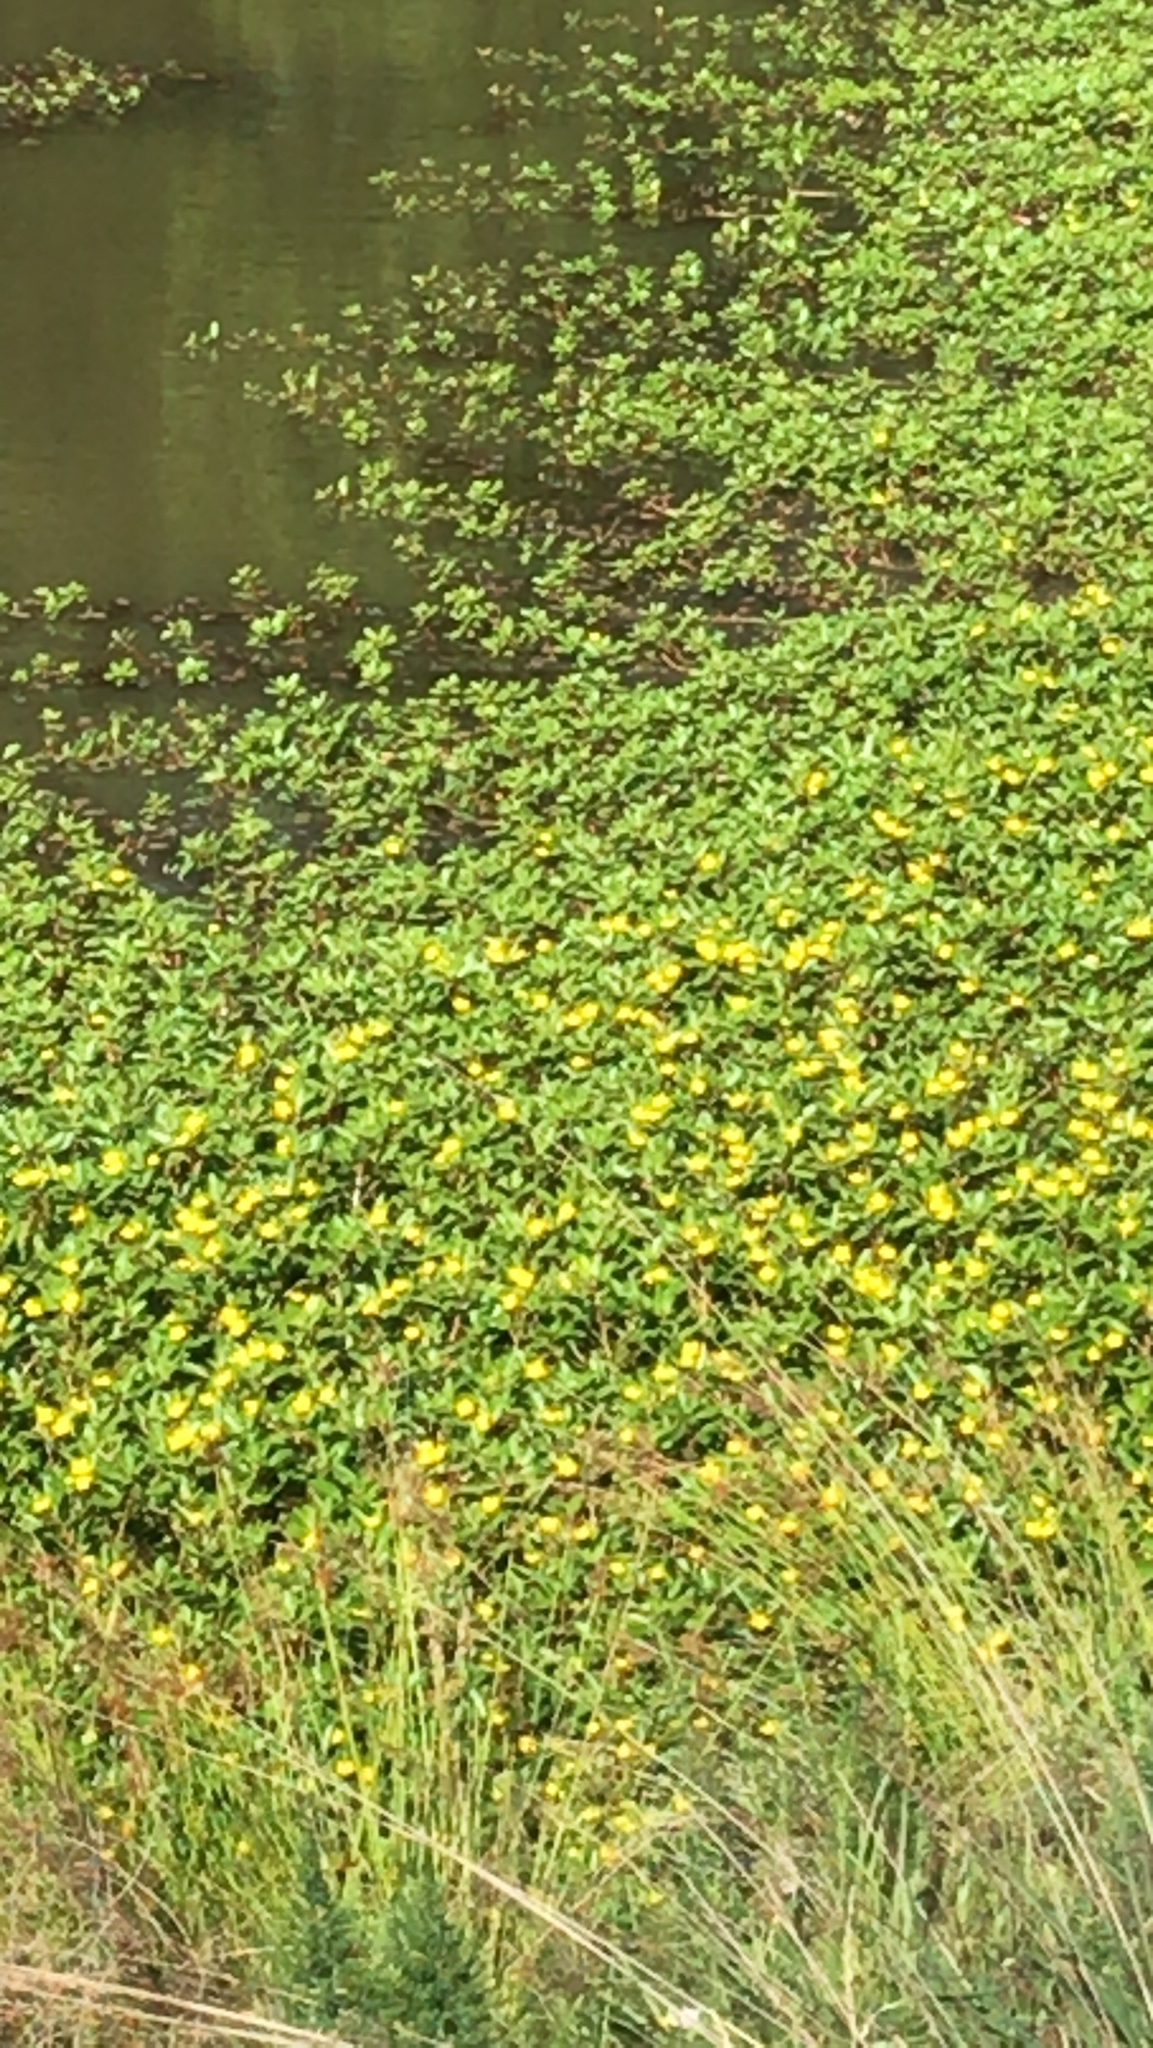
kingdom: Plantae
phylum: Tracheophyta
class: Magnoliopsida
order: Myrtales
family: Onagraceae
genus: Ludwigia
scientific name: Ludwigia peploides
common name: Floating primrose-willow
